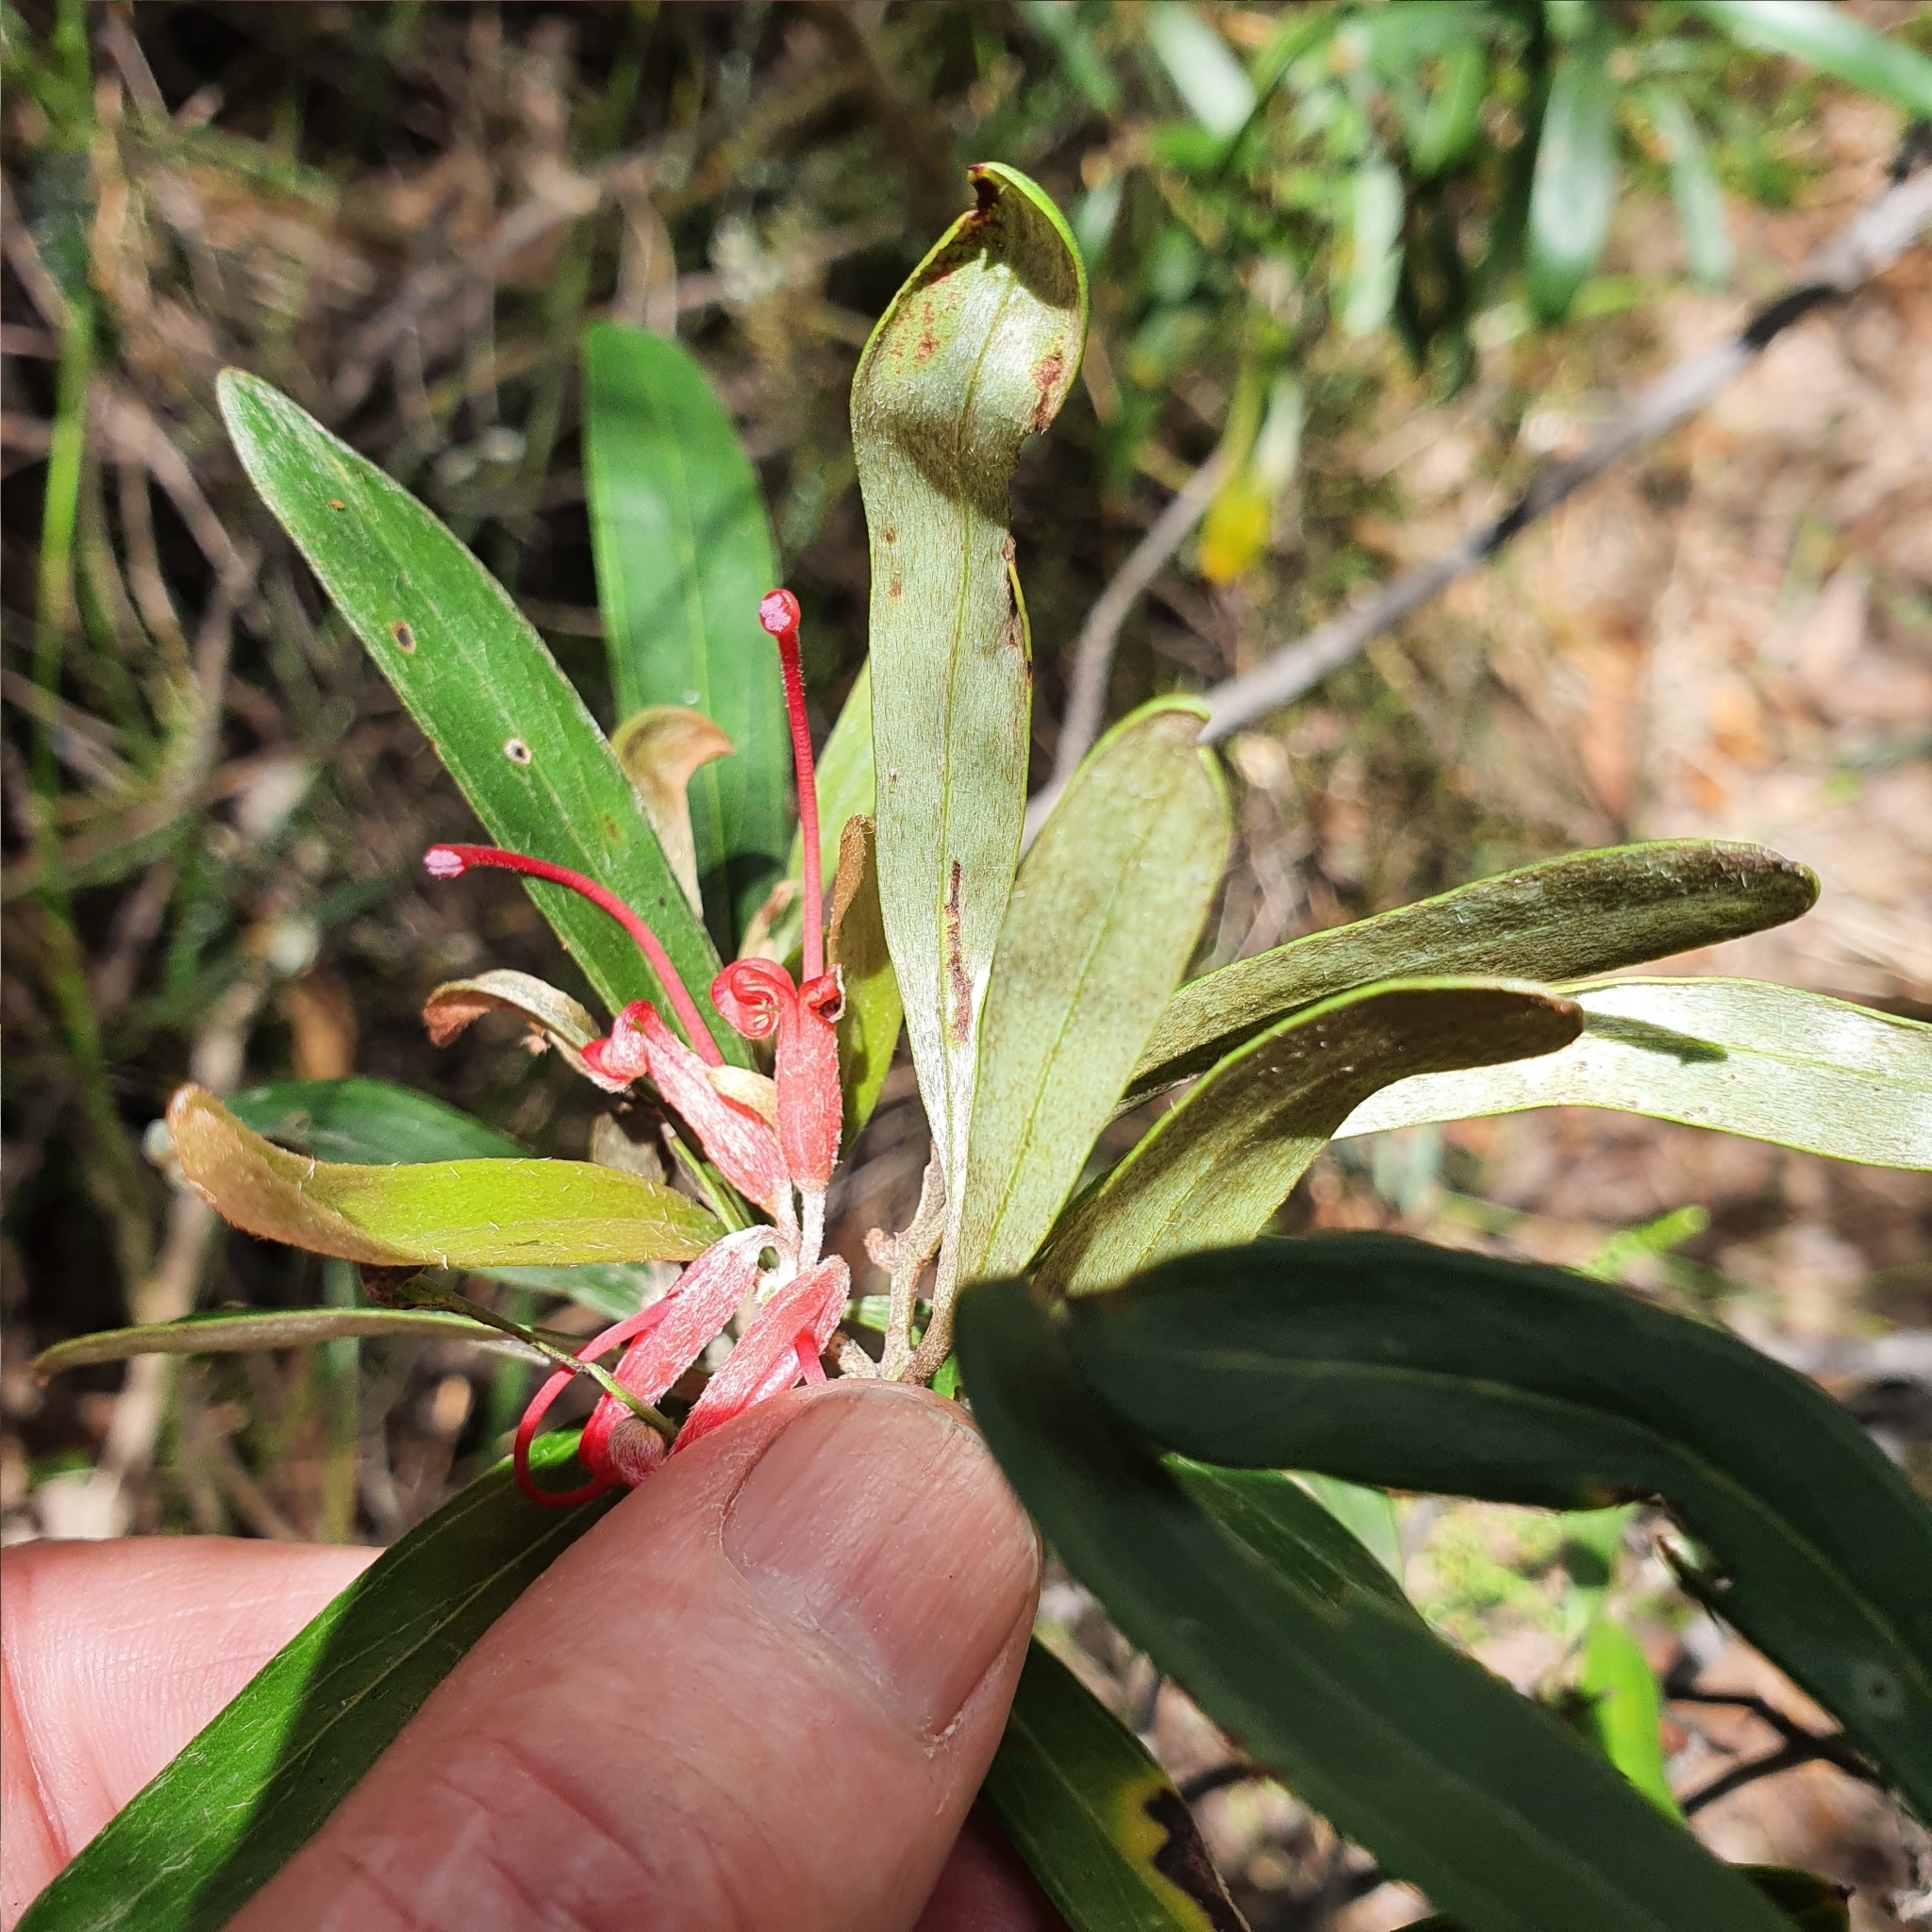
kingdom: Plantae
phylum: Tracheophyta
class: Magnoliopsida
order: Proteales
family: Proteaceae
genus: Grevillea
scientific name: Grevillea oleoides
